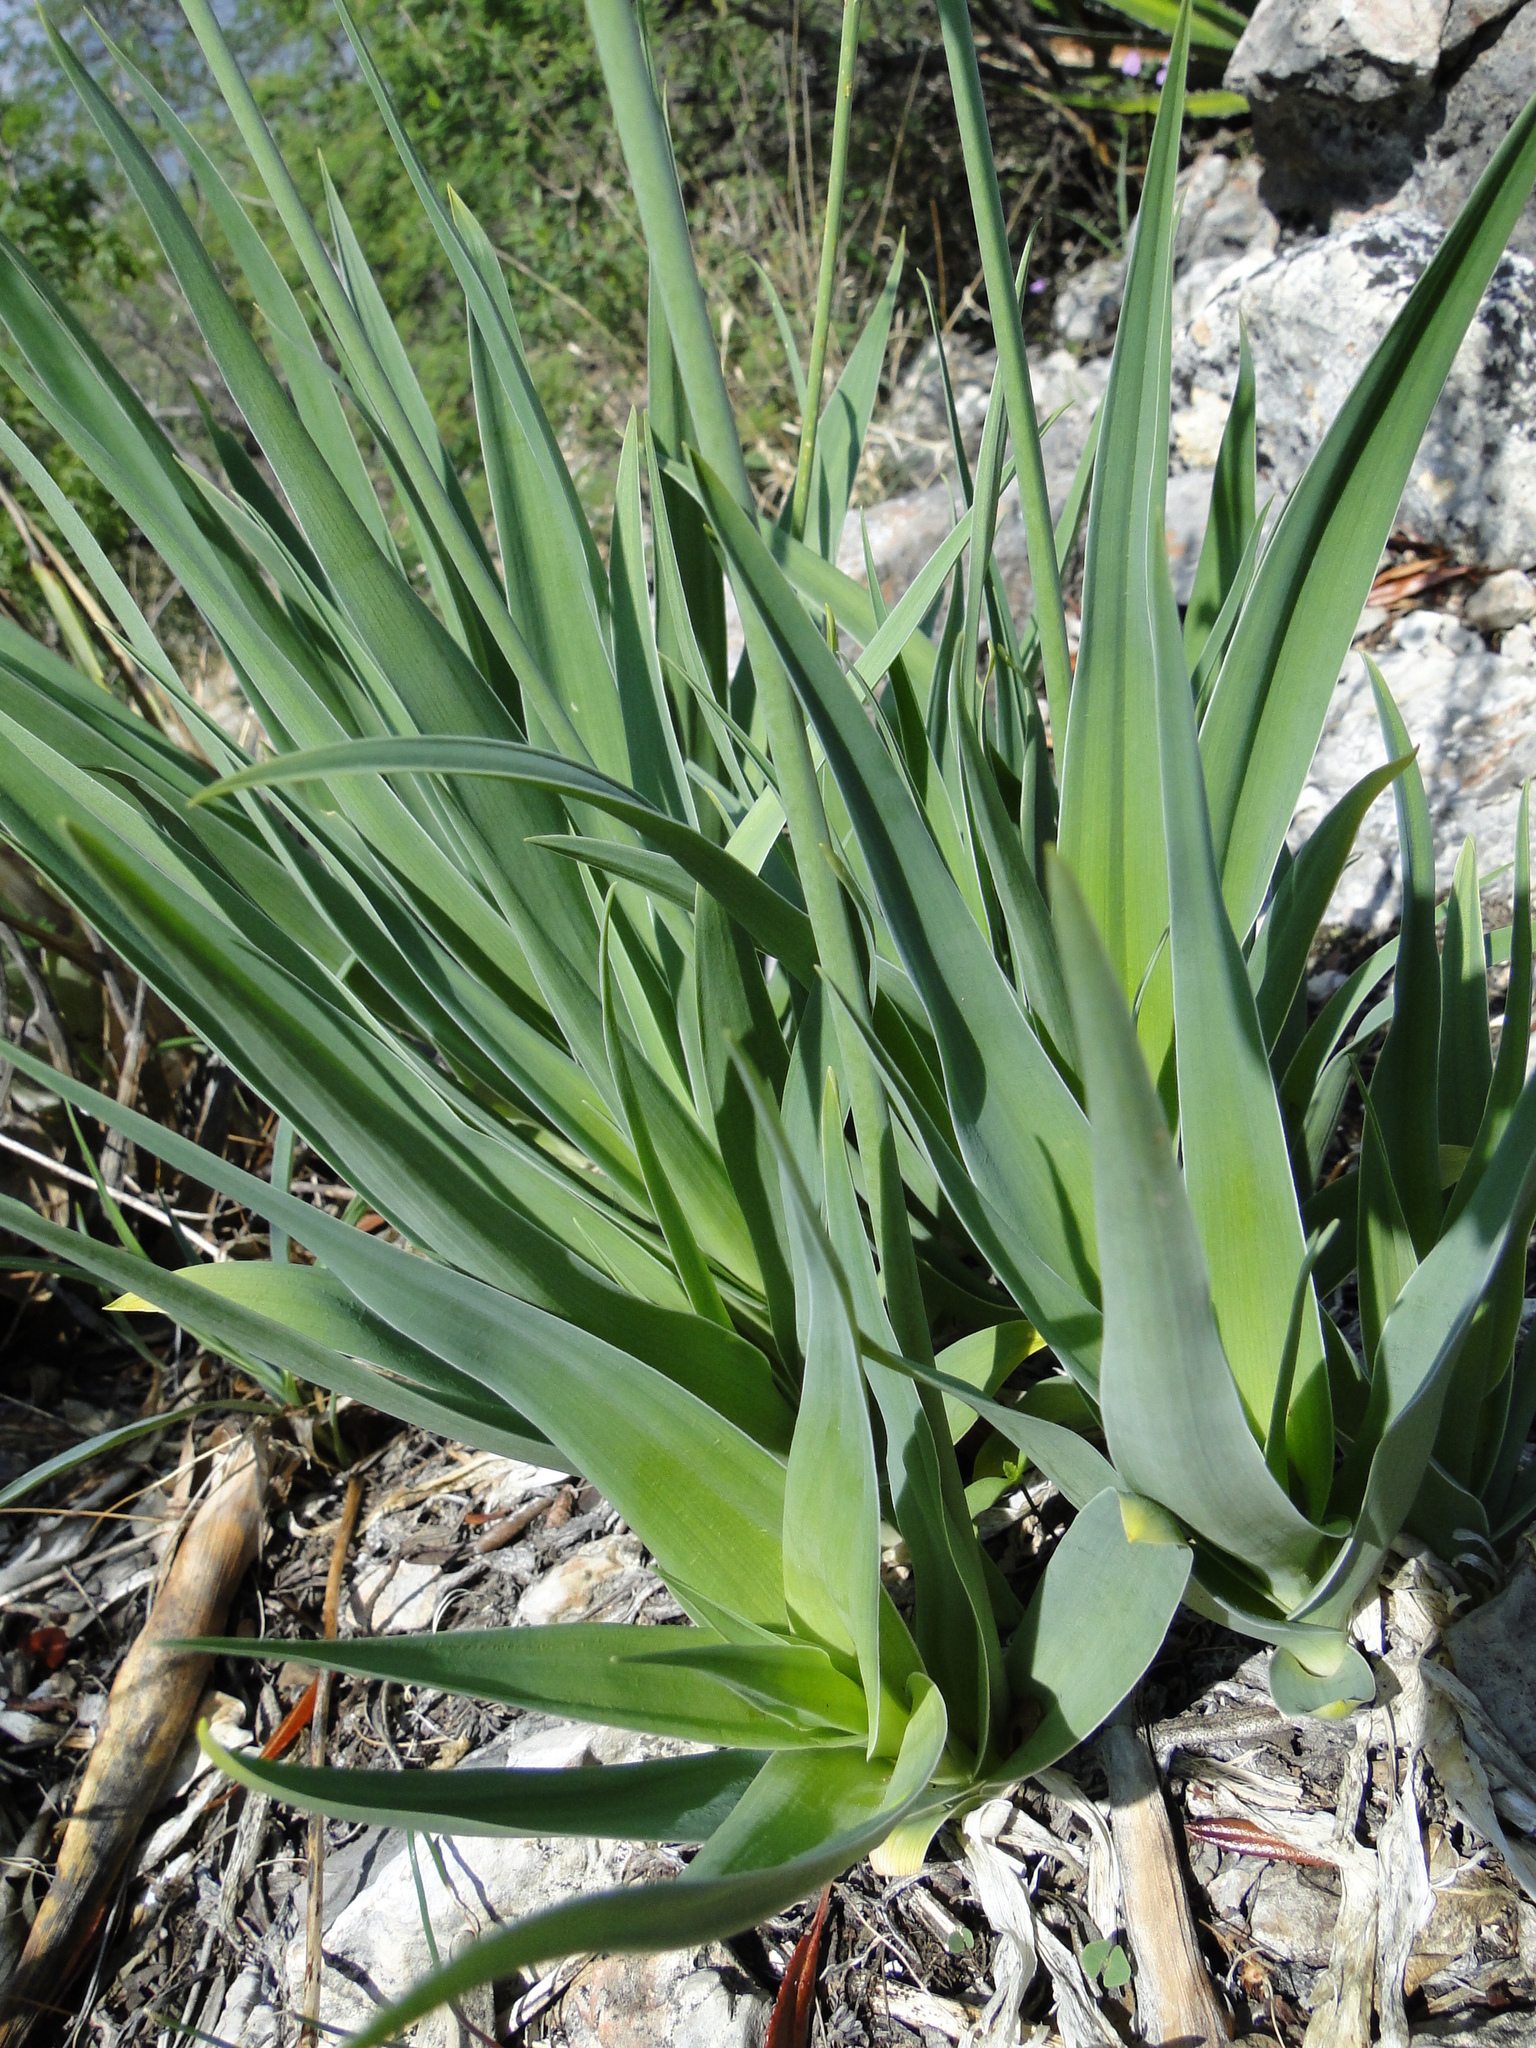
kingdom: Plantae
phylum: Tracheophyta
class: Liliopsida
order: Asparagales
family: Asparagaceae
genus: Hemiphylacus
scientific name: Hemiphylacus mahindae
